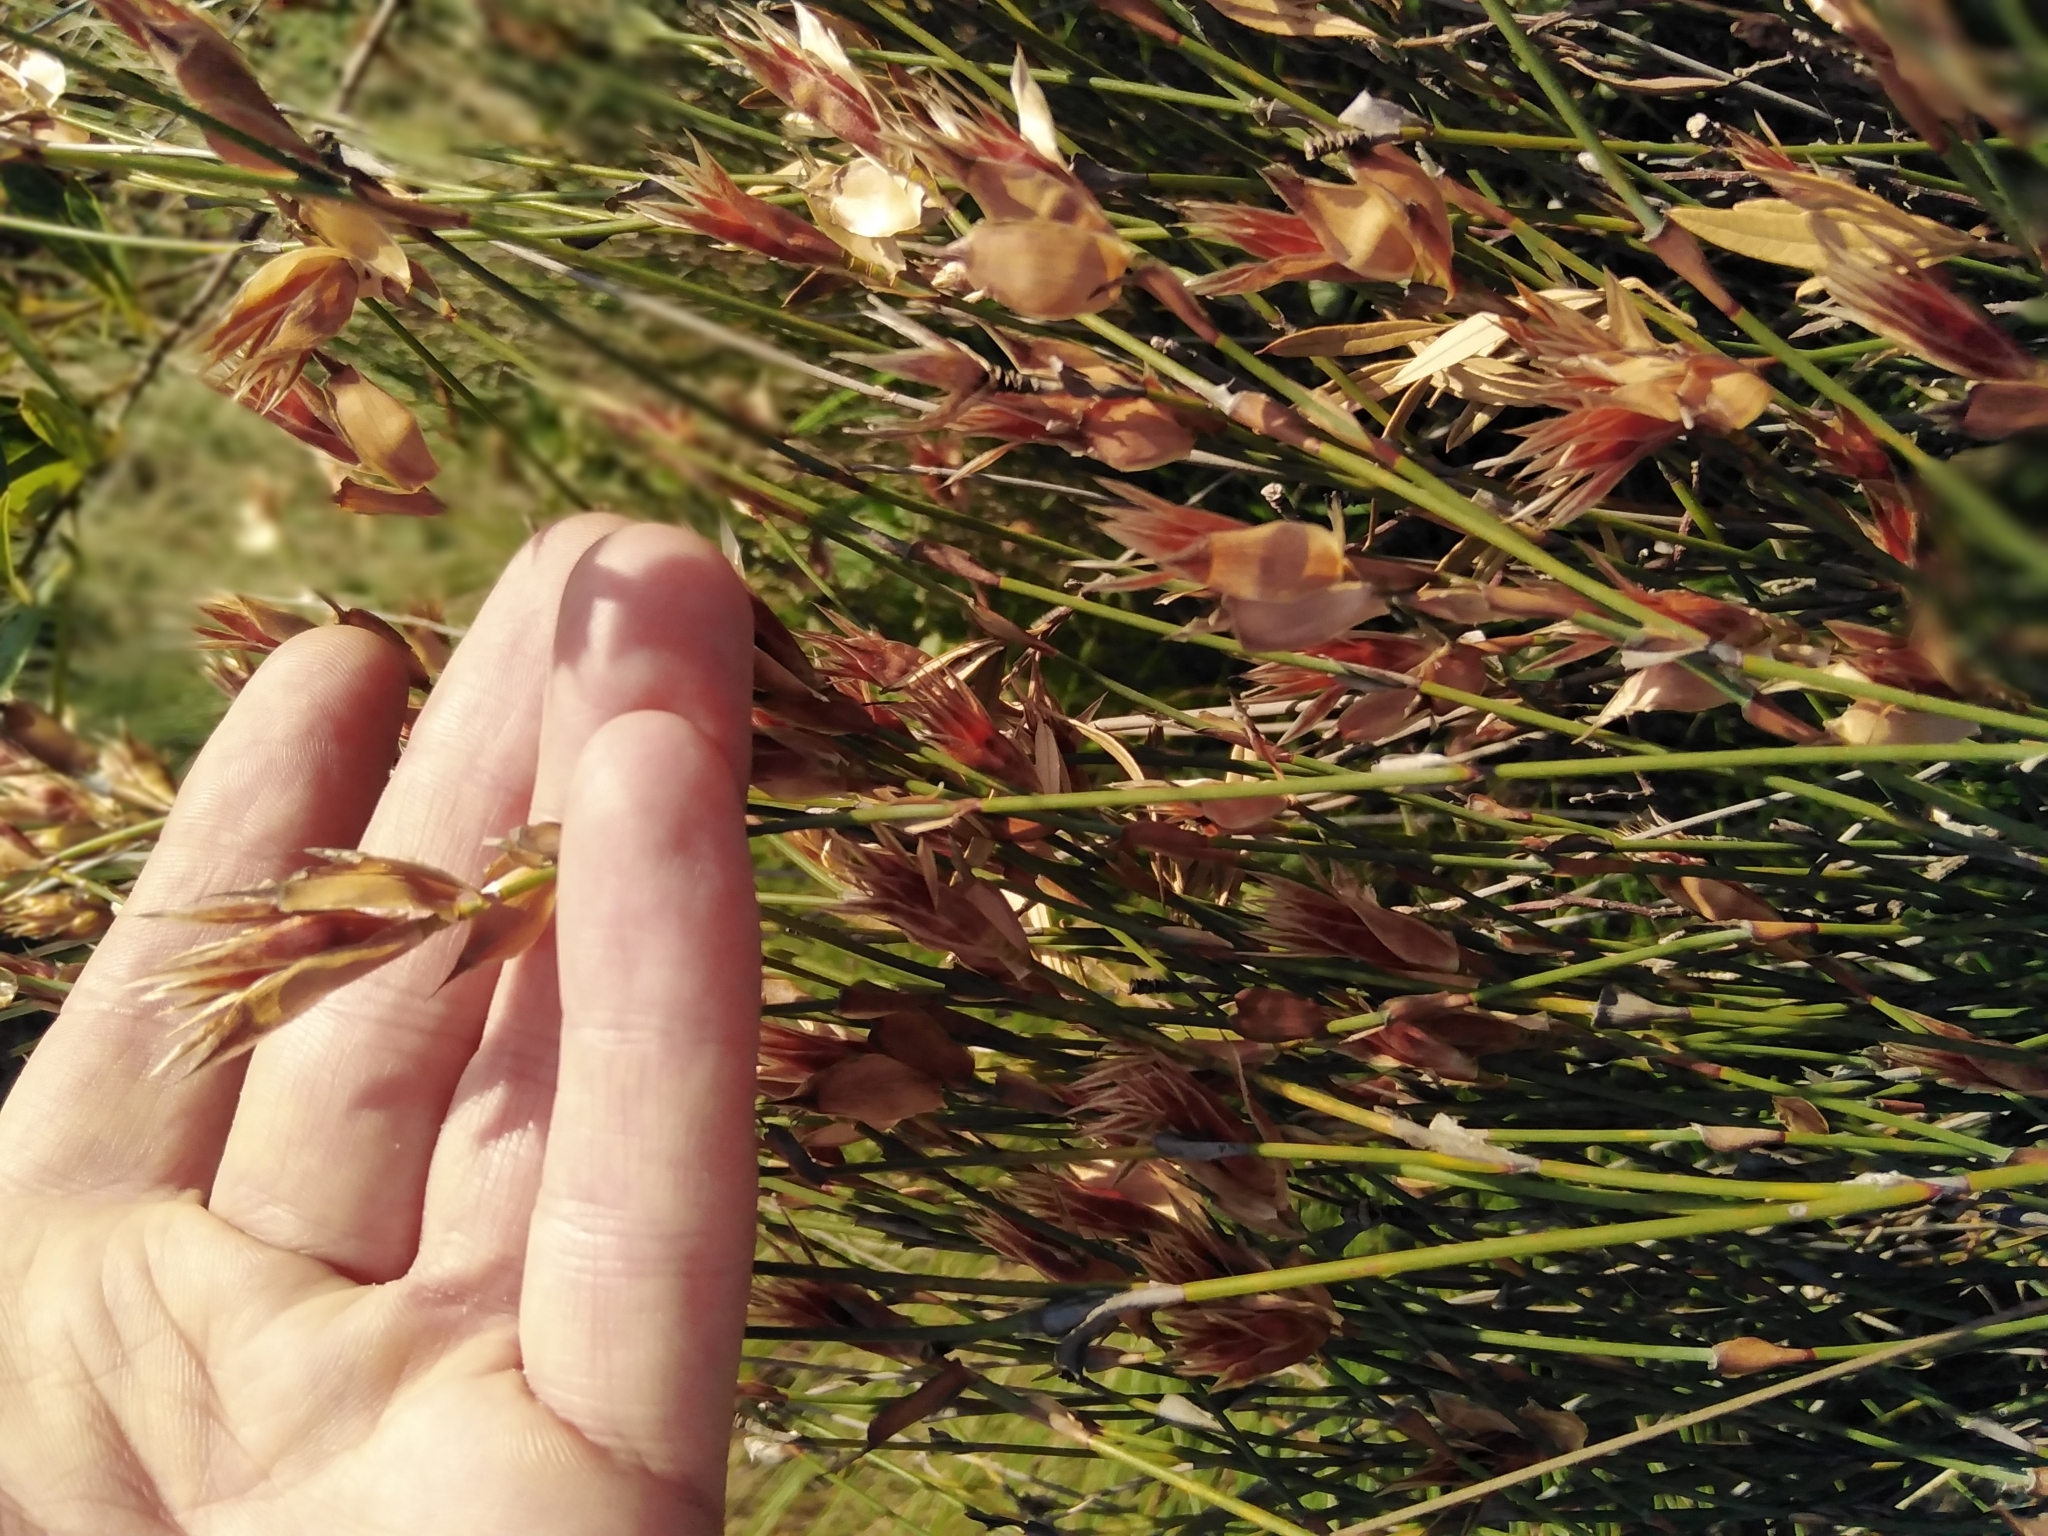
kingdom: Plantae
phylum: Tracheophyta
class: Liliopsida
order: Poales
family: Restionaceae
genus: Willdenowia
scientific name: Willdenowia incurvata
